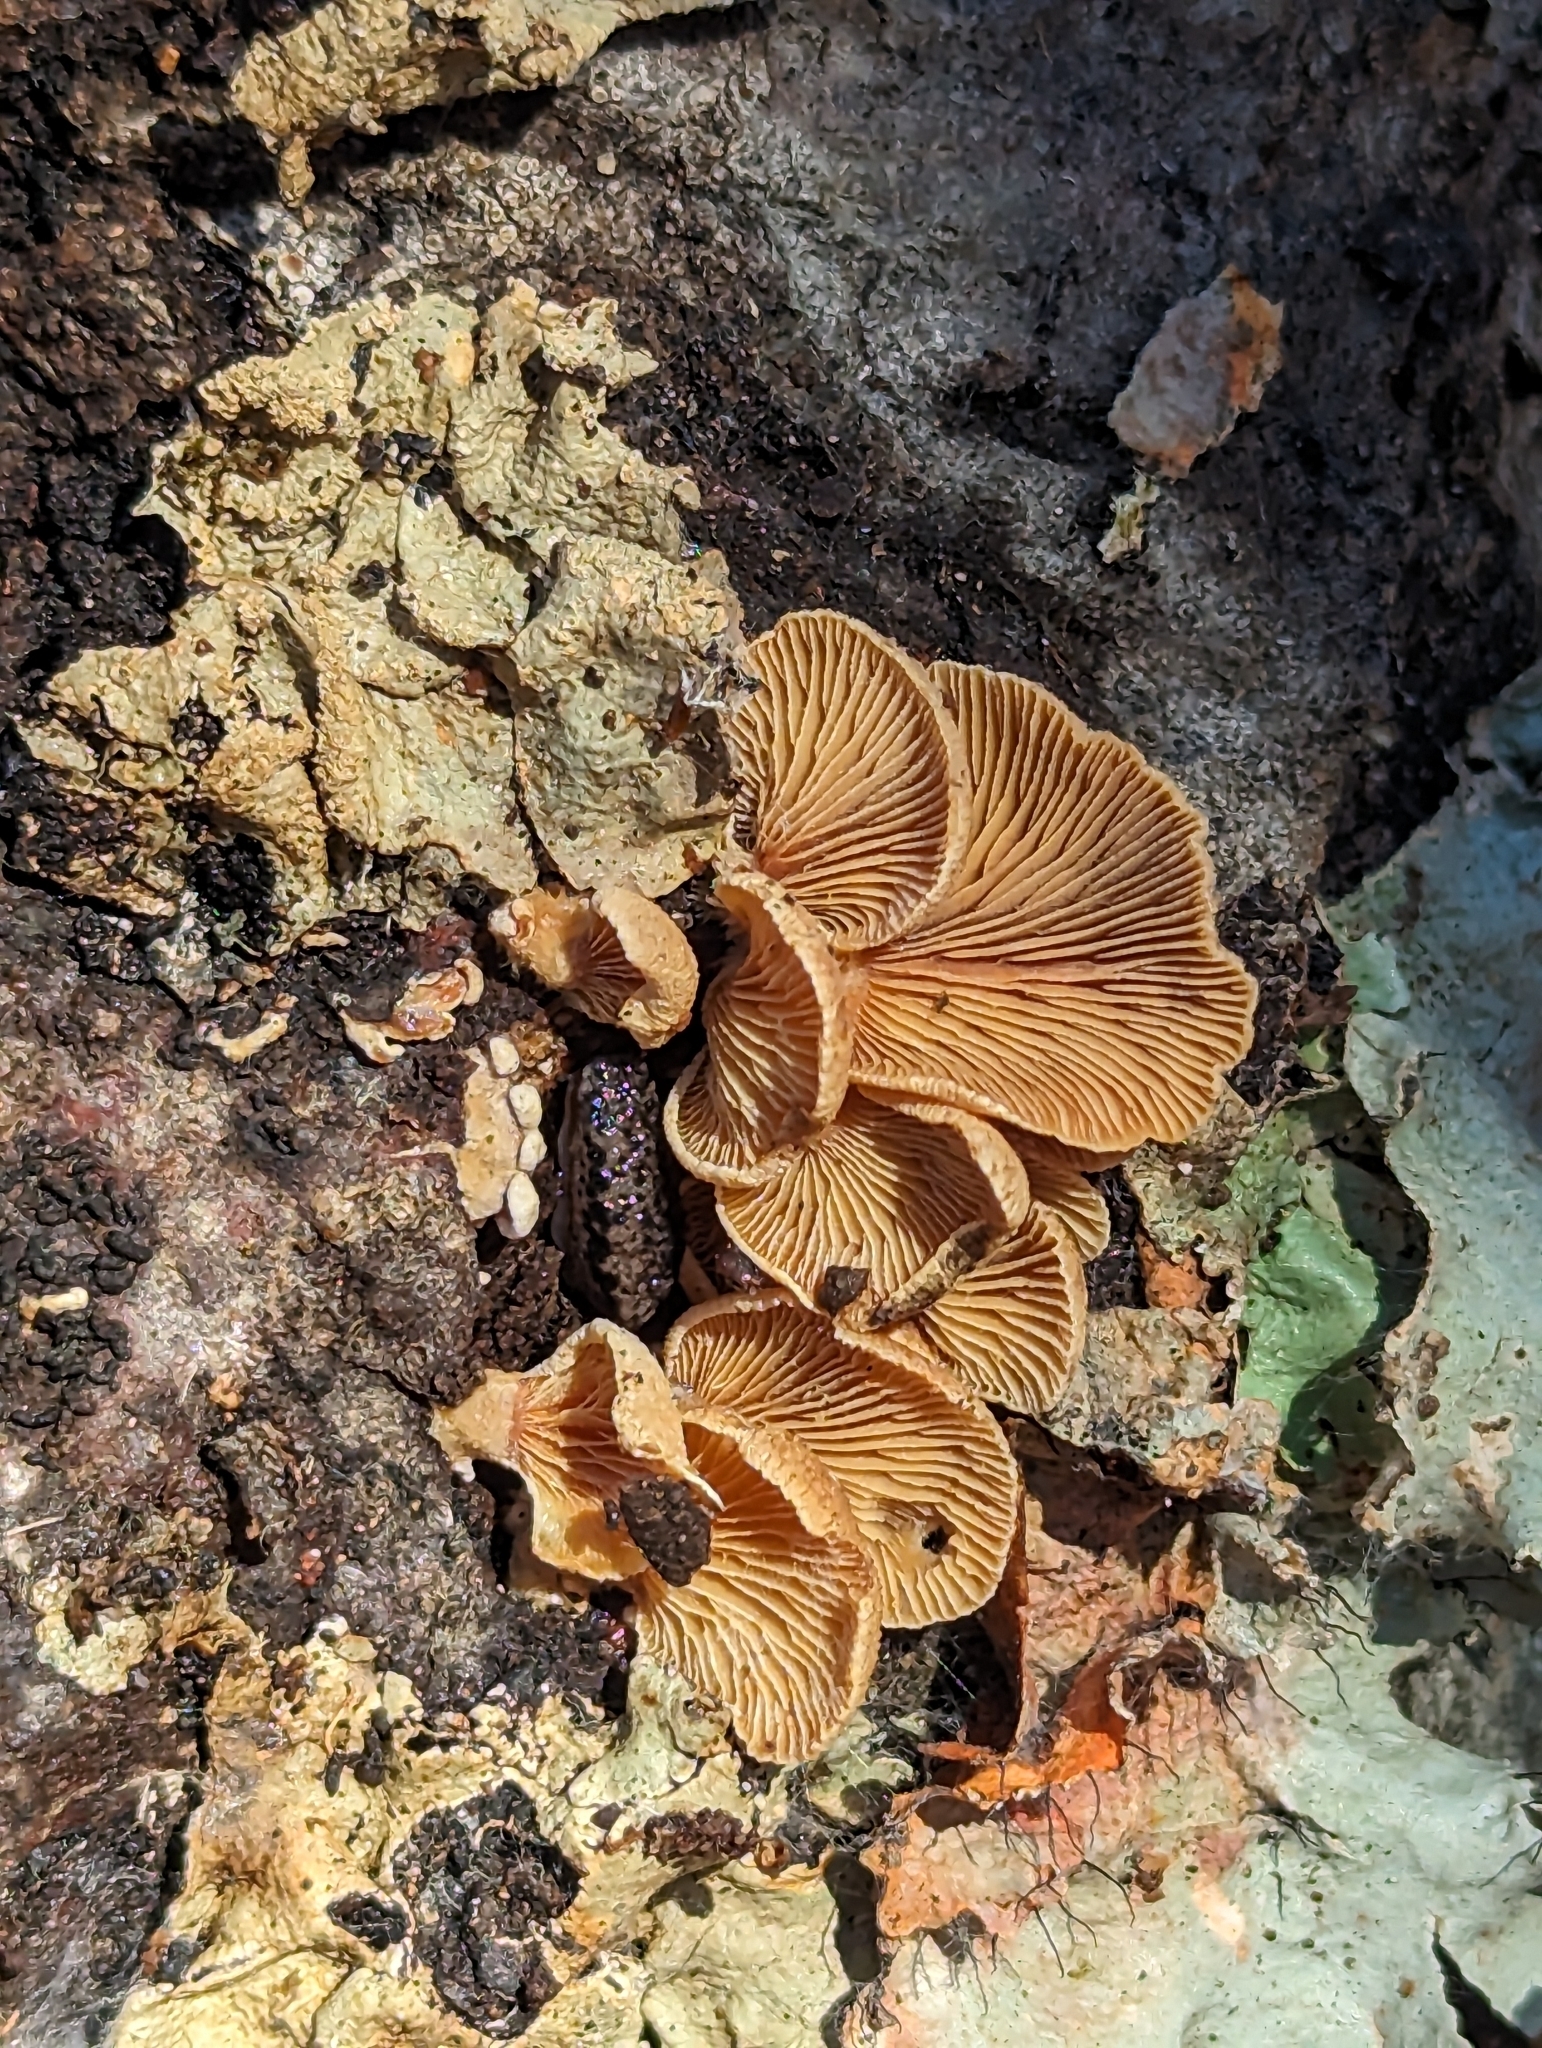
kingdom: Fungi
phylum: Basidiomycota
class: Agaricomycetes
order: Agaricales
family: Mycenaceae
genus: Panellus
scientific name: Panellus stipticus
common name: Bitter oysterling
